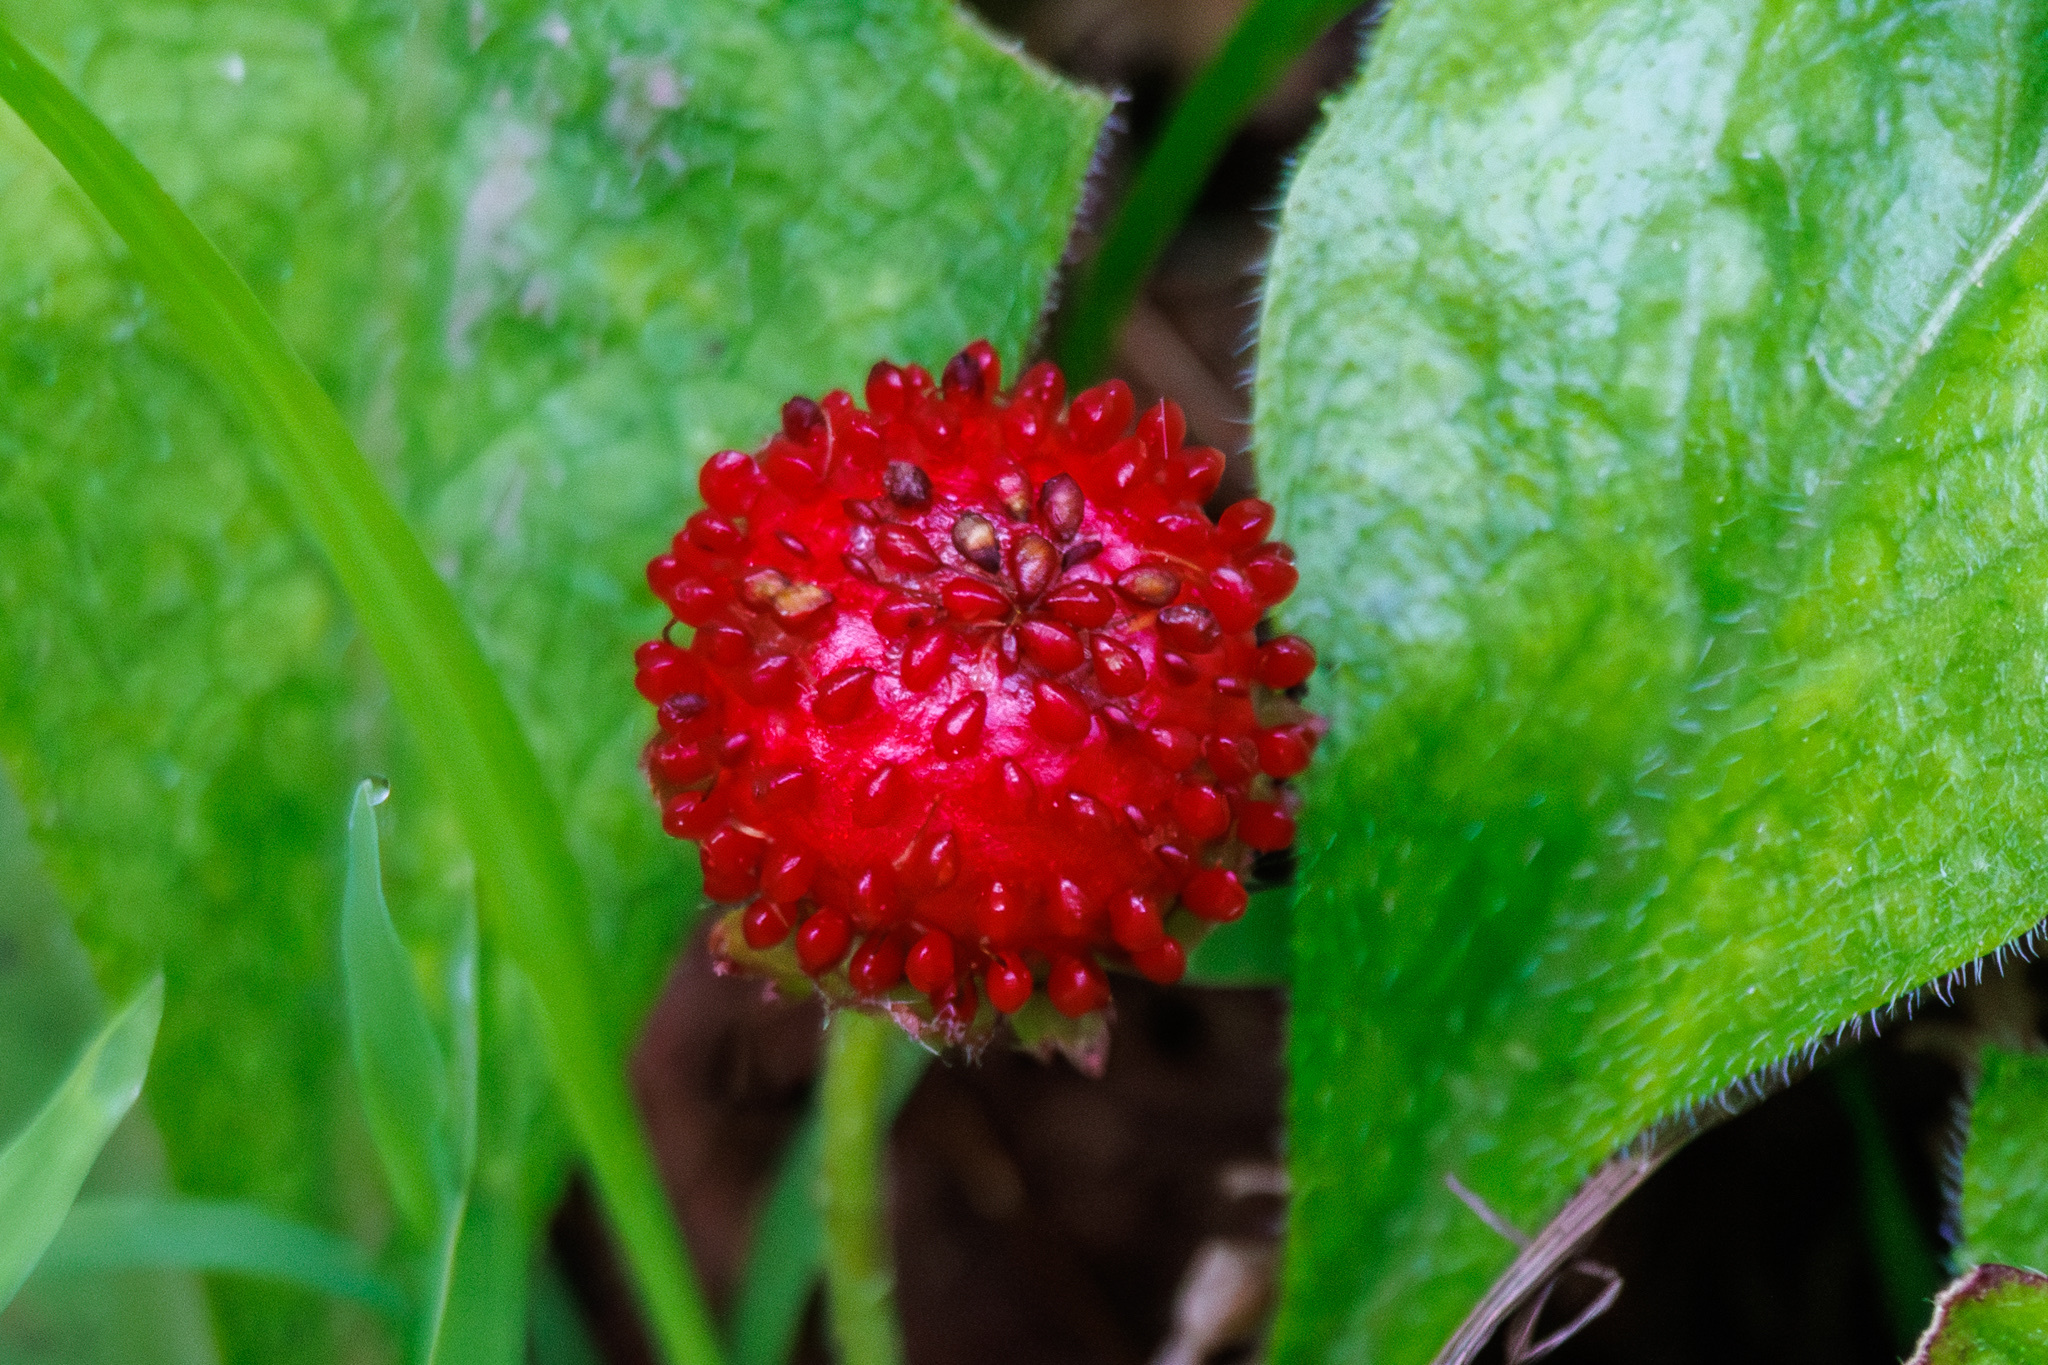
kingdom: Plantae
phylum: Tracheophyta
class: Magnoliopsida
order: Rosales
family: Rosaceae
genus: Potentilla
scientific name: Potentilla indica
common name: Yellow-flowered strawberry
